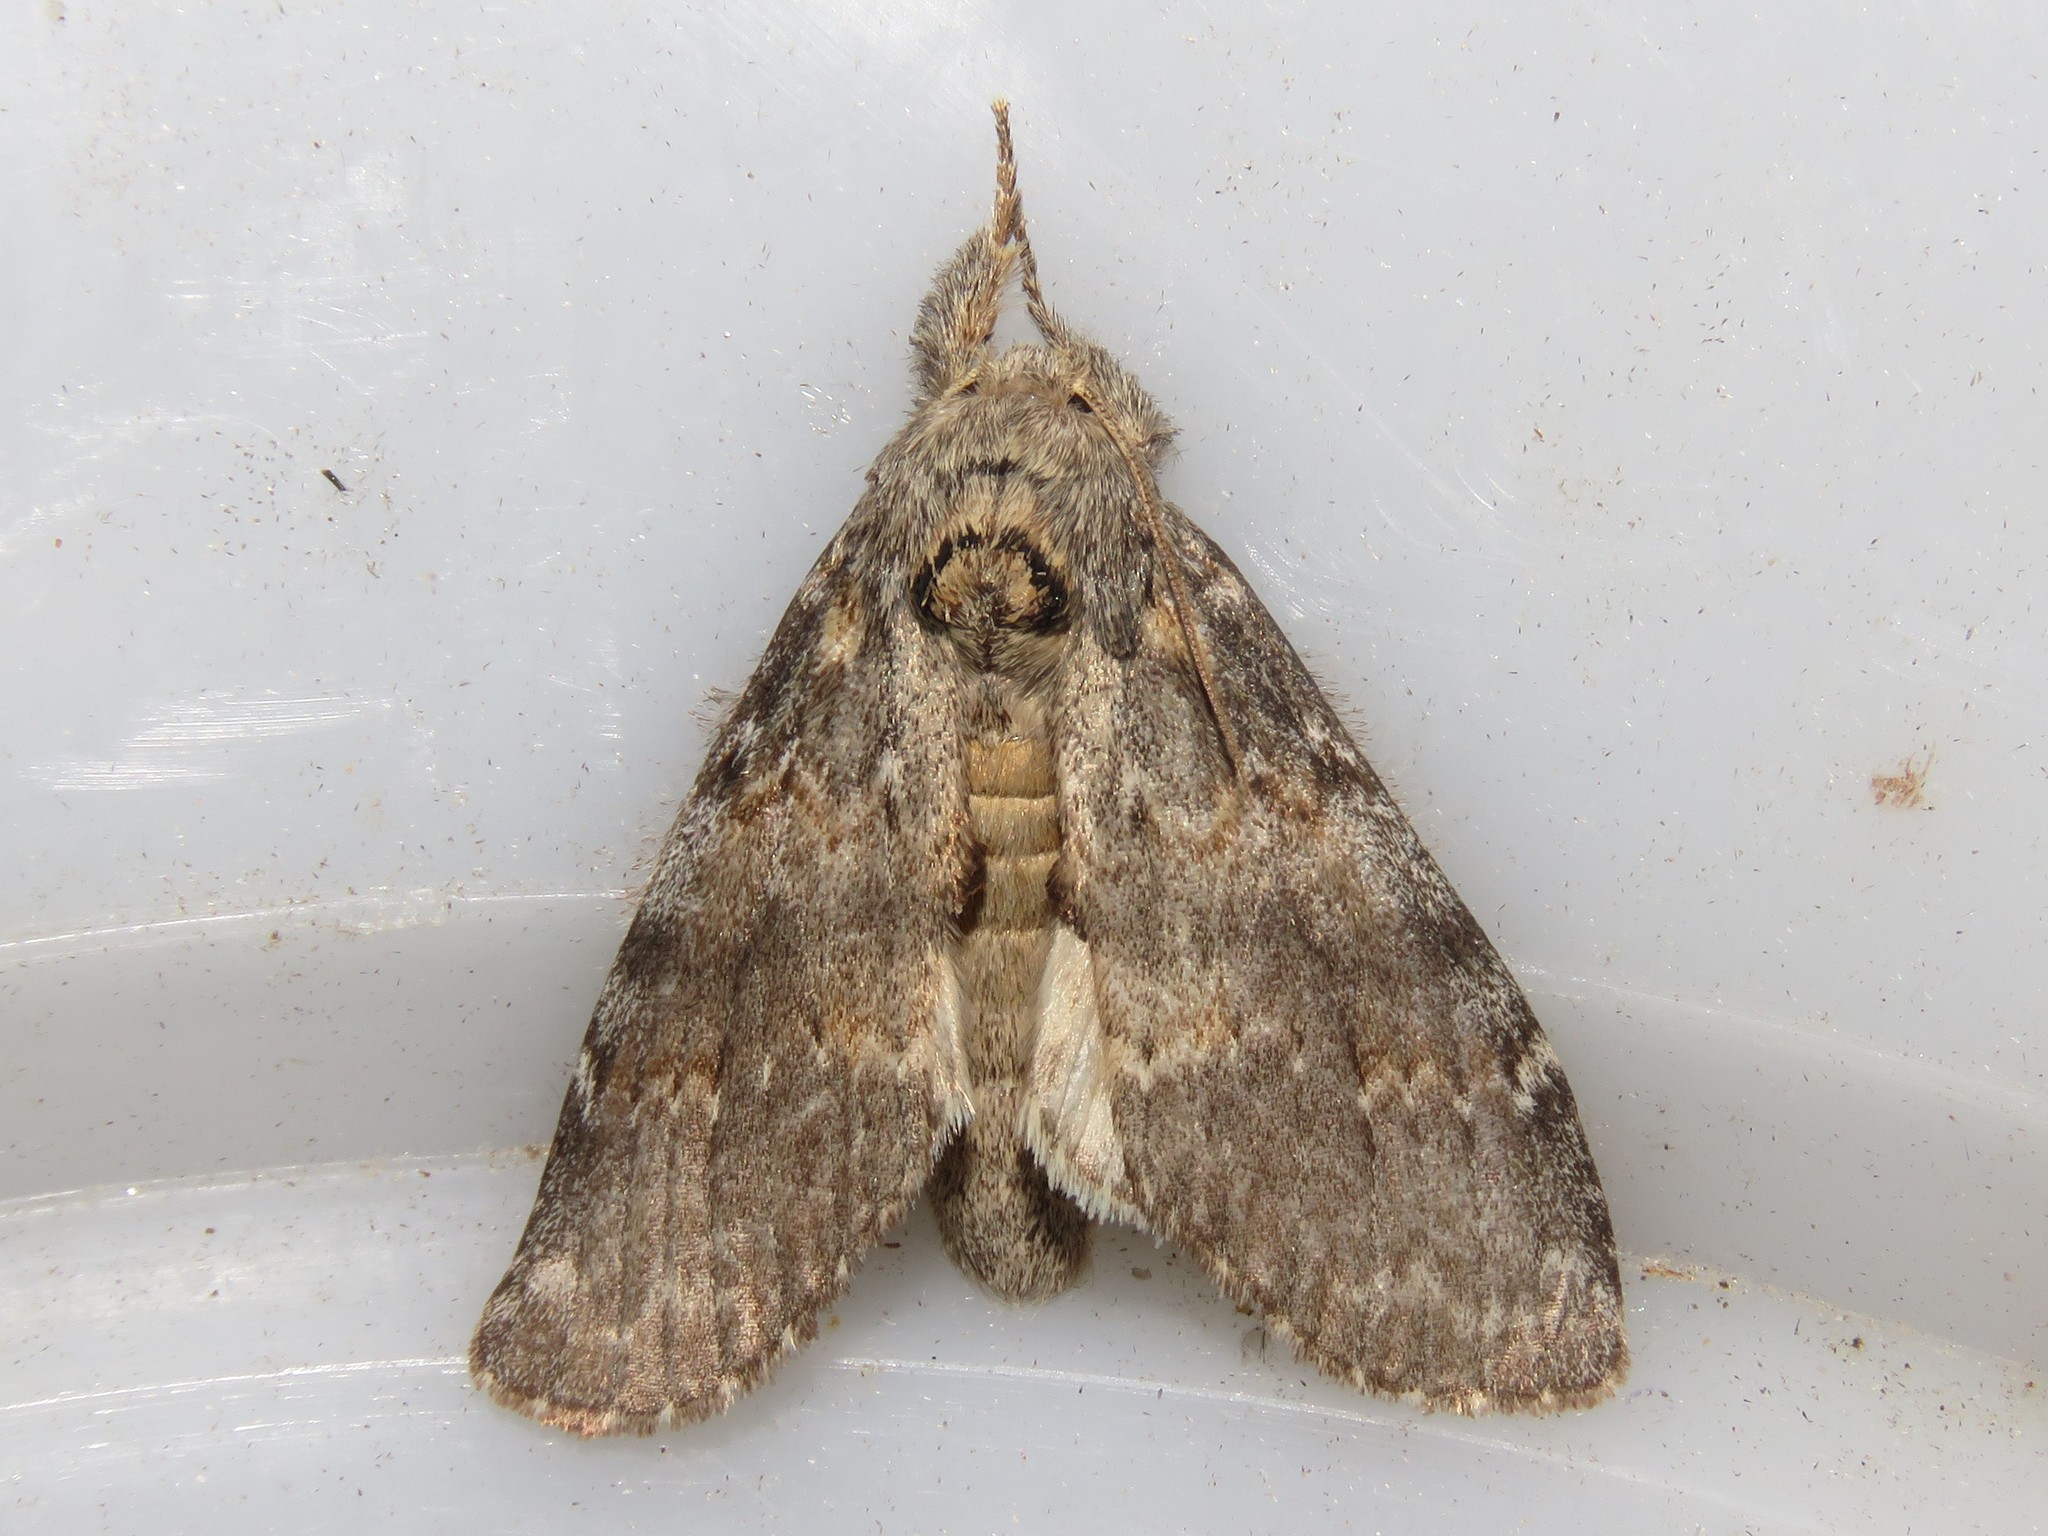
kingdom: Animalia
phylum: Arthropoda
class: Insecta
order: Lepidoptera
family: Notodontidae
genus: Peridea
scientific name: Peridea angulosa
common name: Angulose prominent
